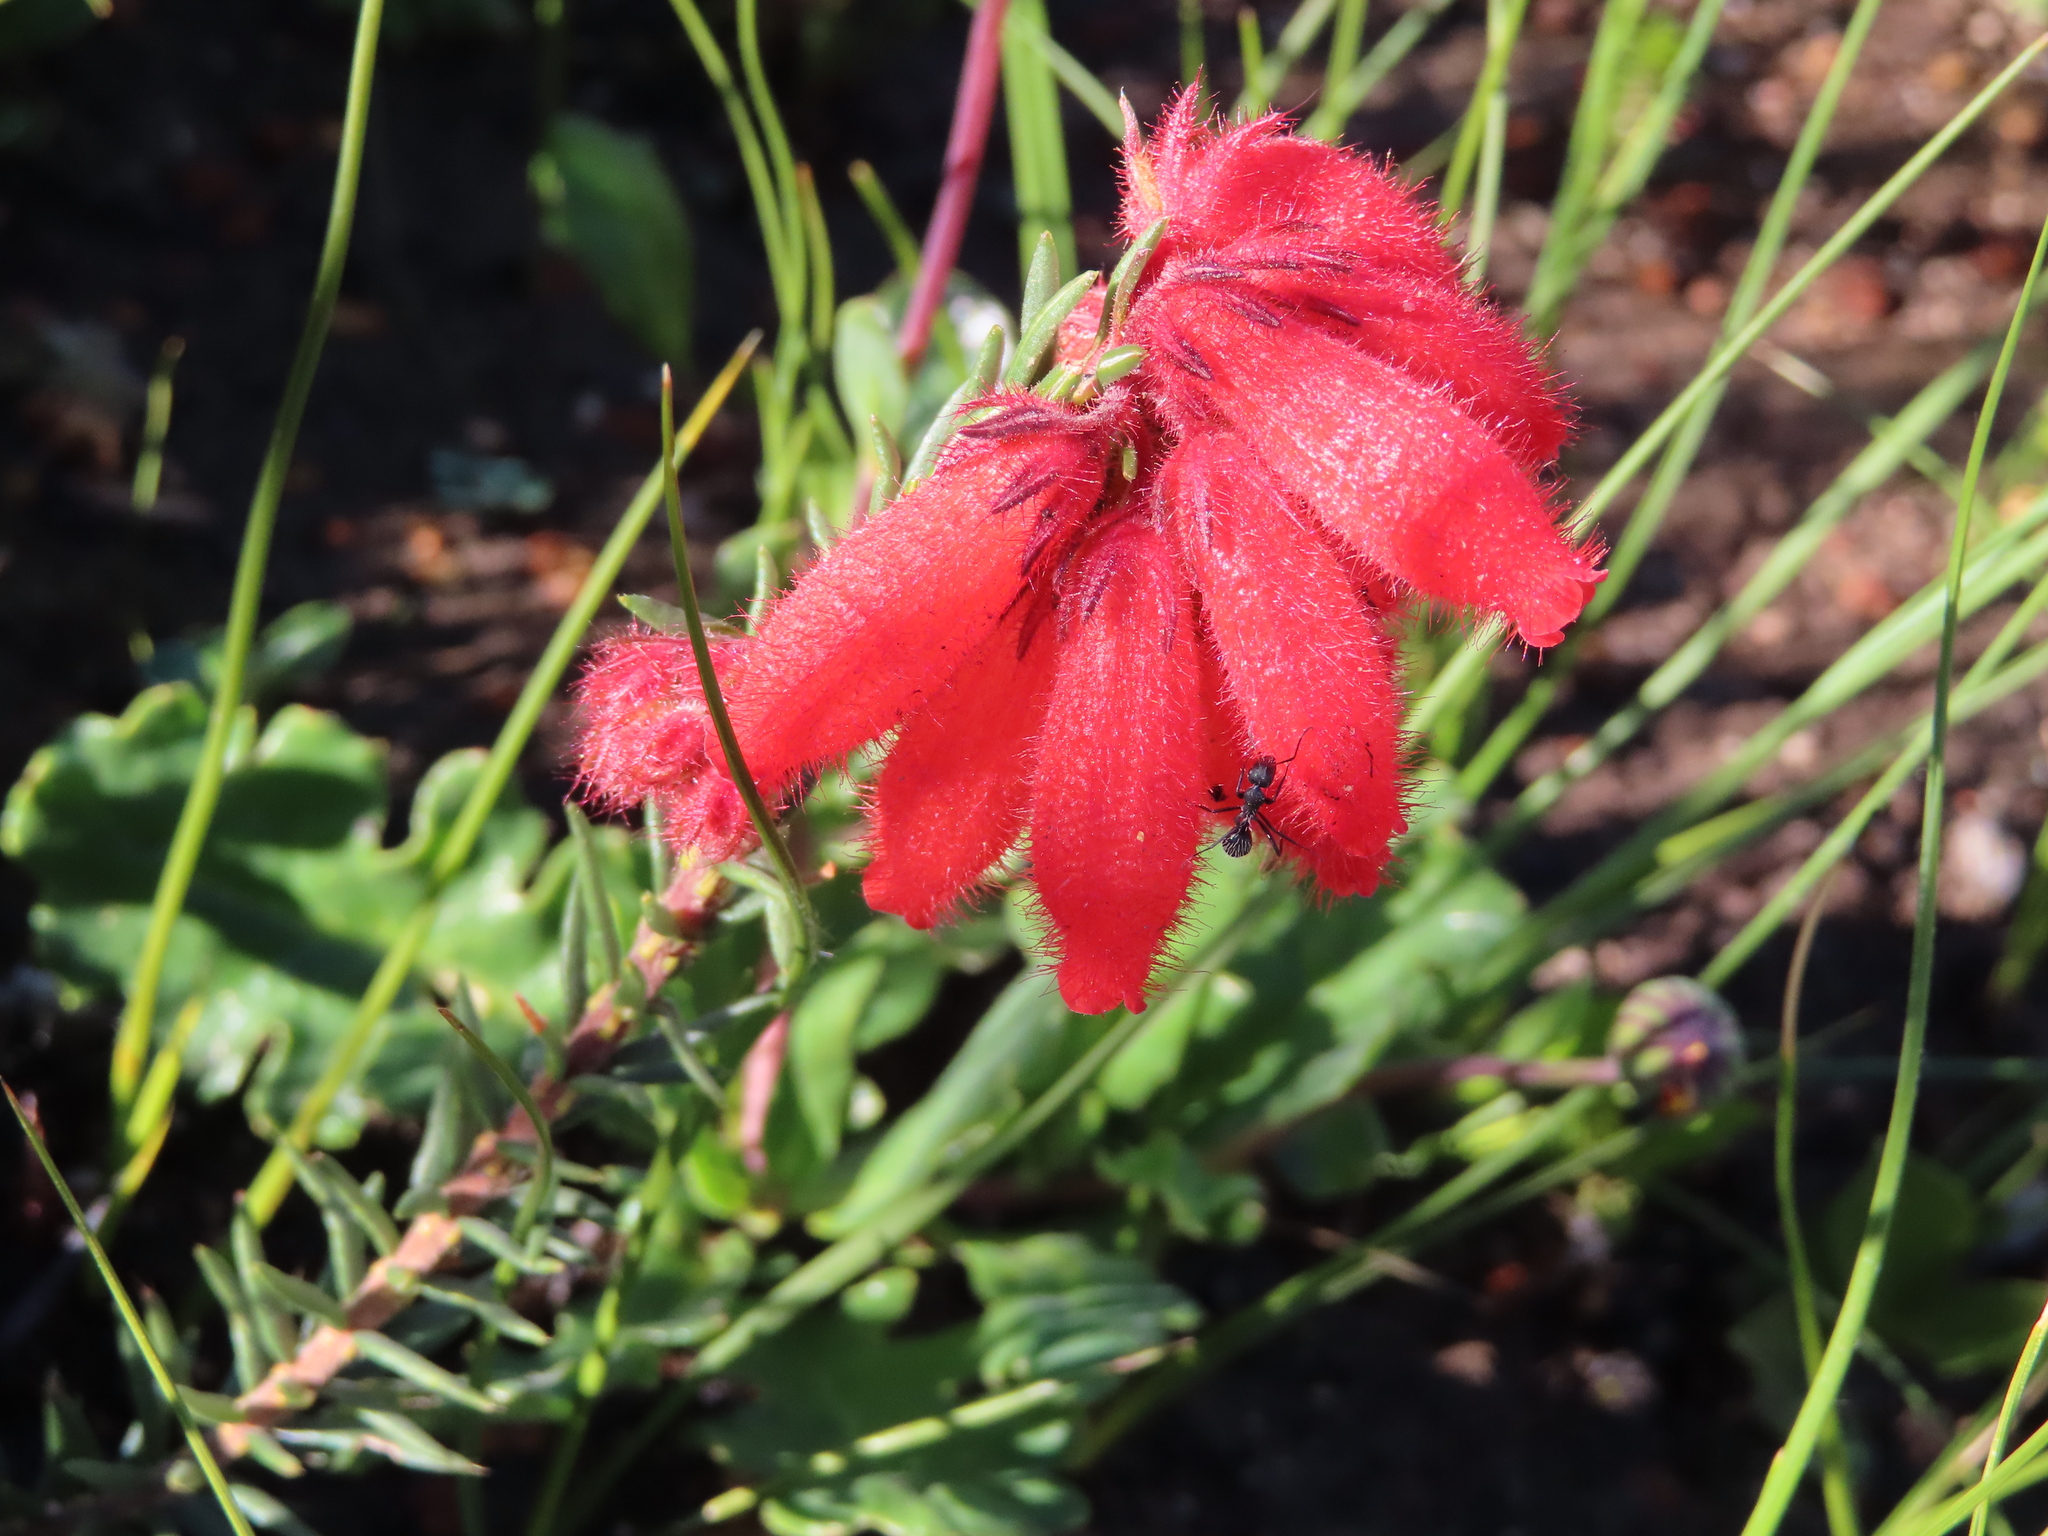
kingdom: Plantae
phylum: Tracheophyta
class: Magnoliopsida
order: Ericales
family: Ericaceae
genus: Erica
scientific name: Erica cerinthoides
